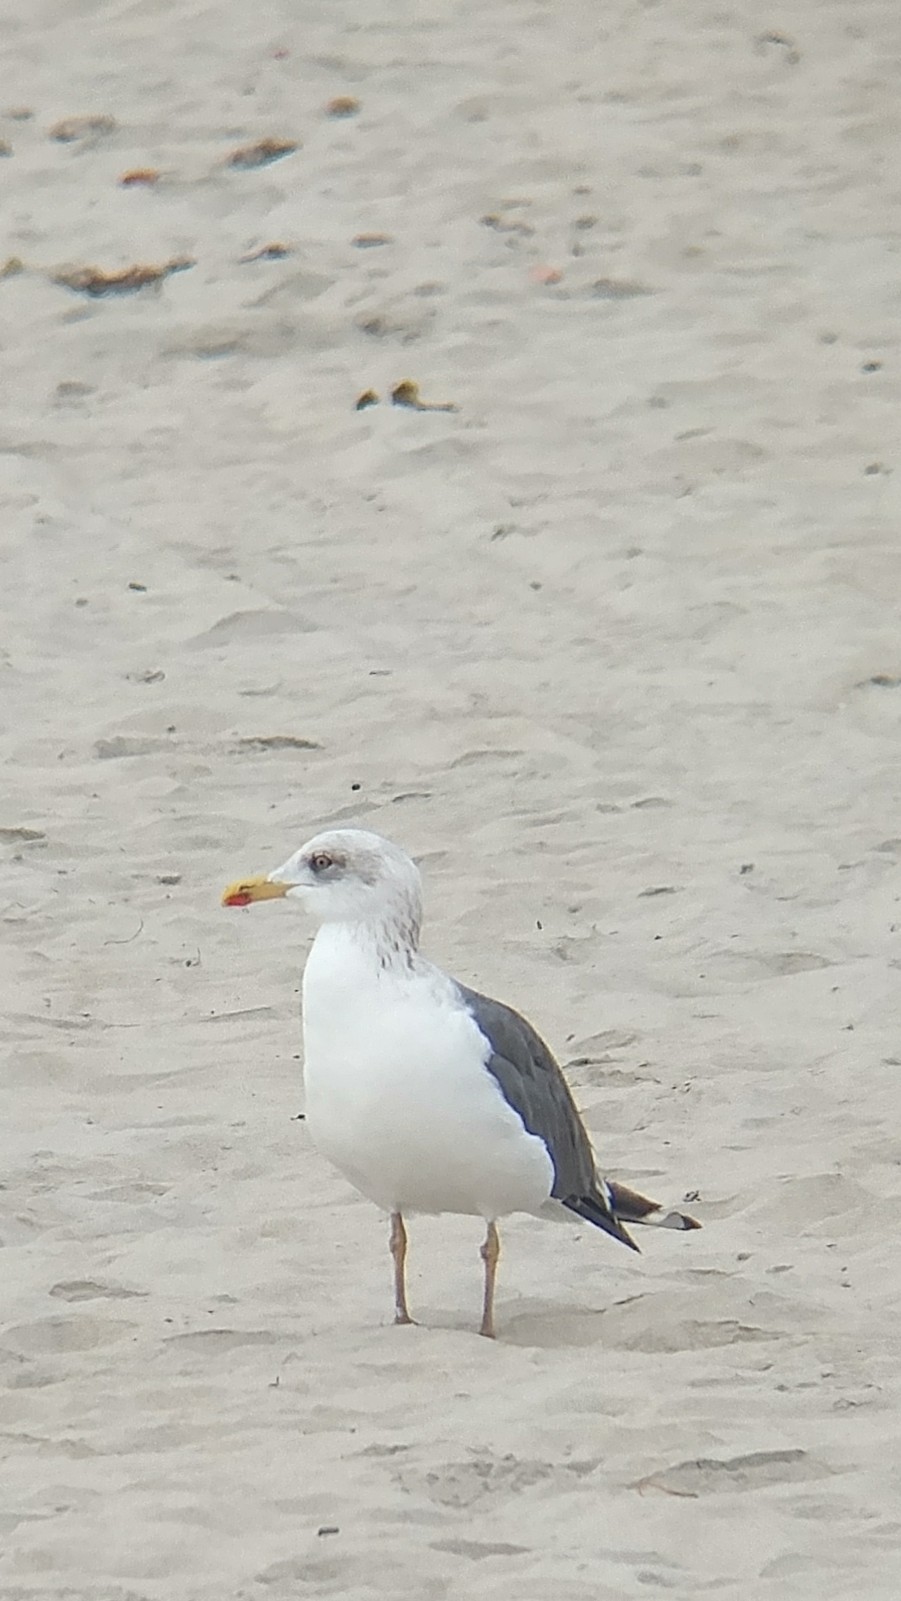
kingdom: Animalia
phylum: Chordata
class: Aves
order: Charadriiformes
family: Laridae
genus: Larus
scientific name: Larus fuscus
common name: Lesser black-backed gull
